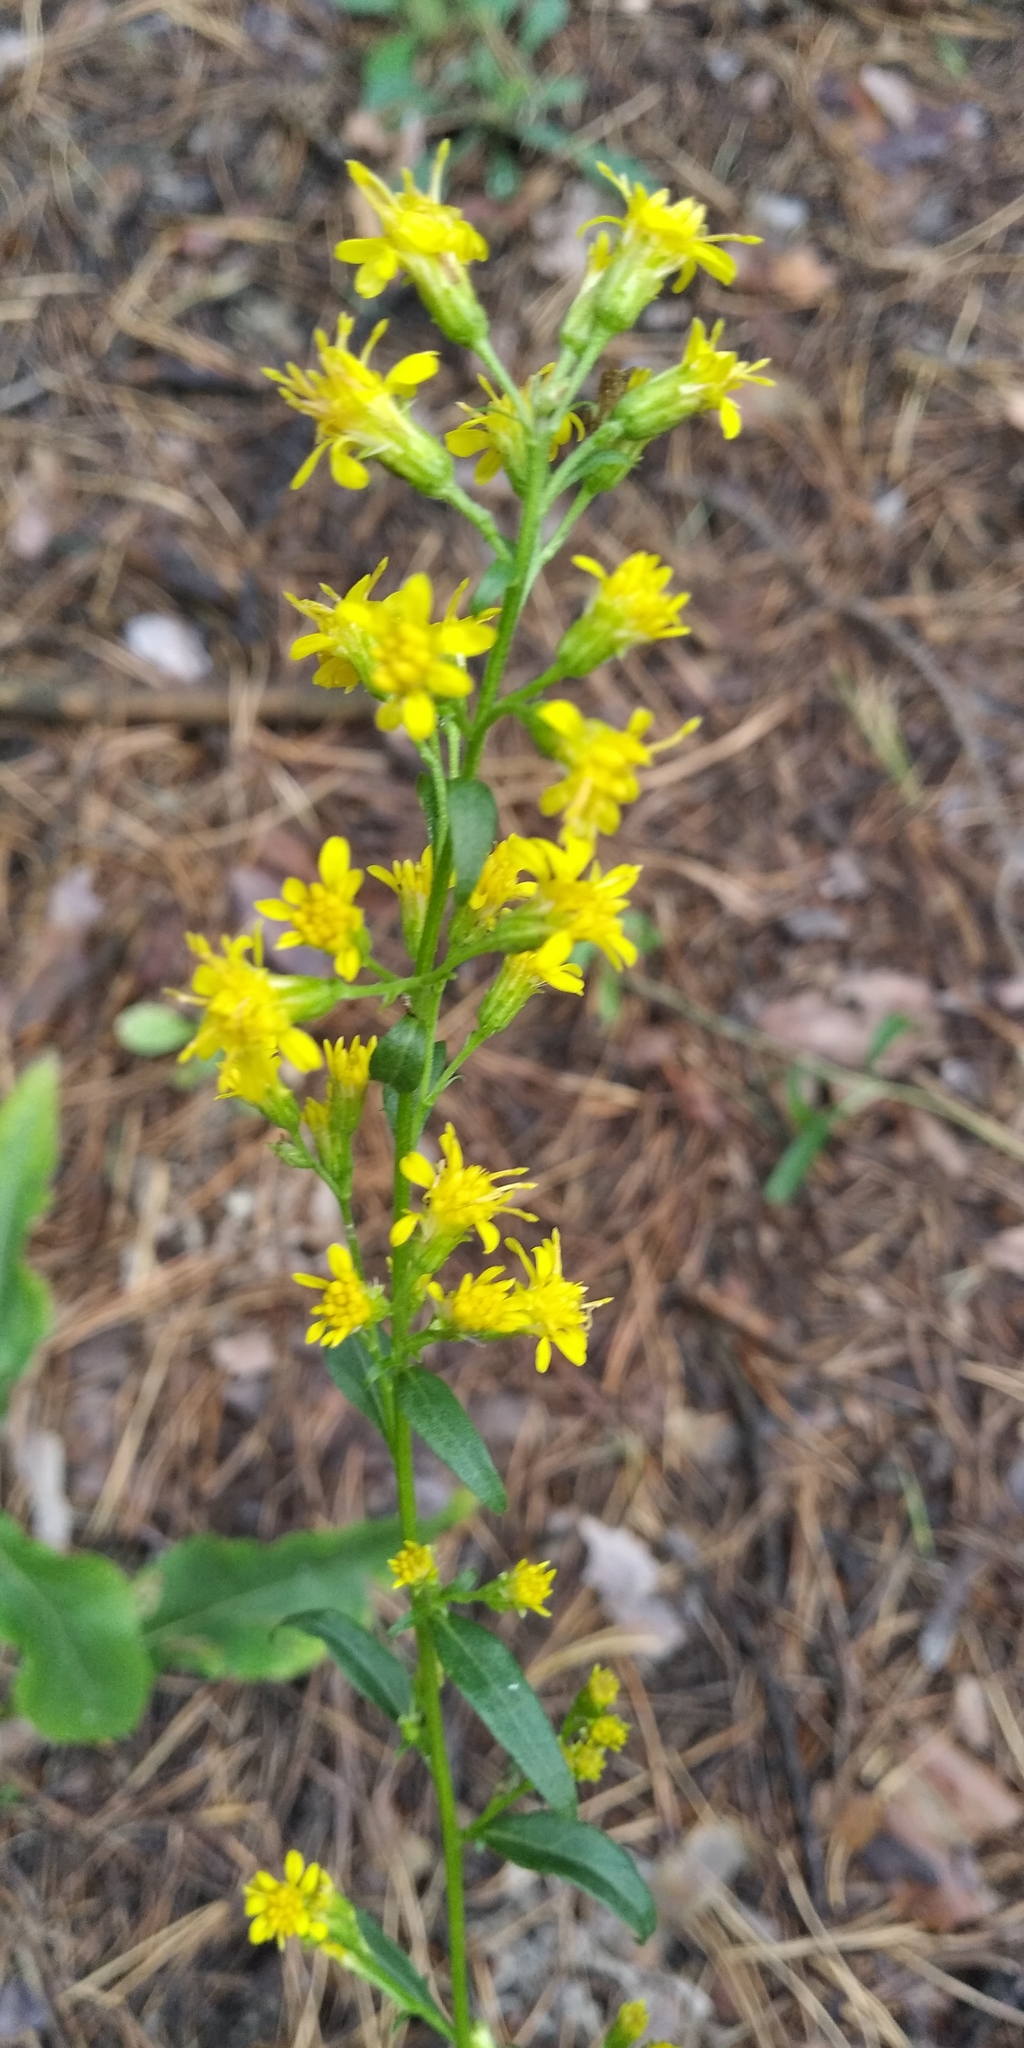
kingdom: Plantae
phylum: Tracheophyta
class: Magnoliopsida
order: Asterales
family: Asteraceae
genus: Solidago
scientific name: Solidago virgaurea
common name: Goldenrod
